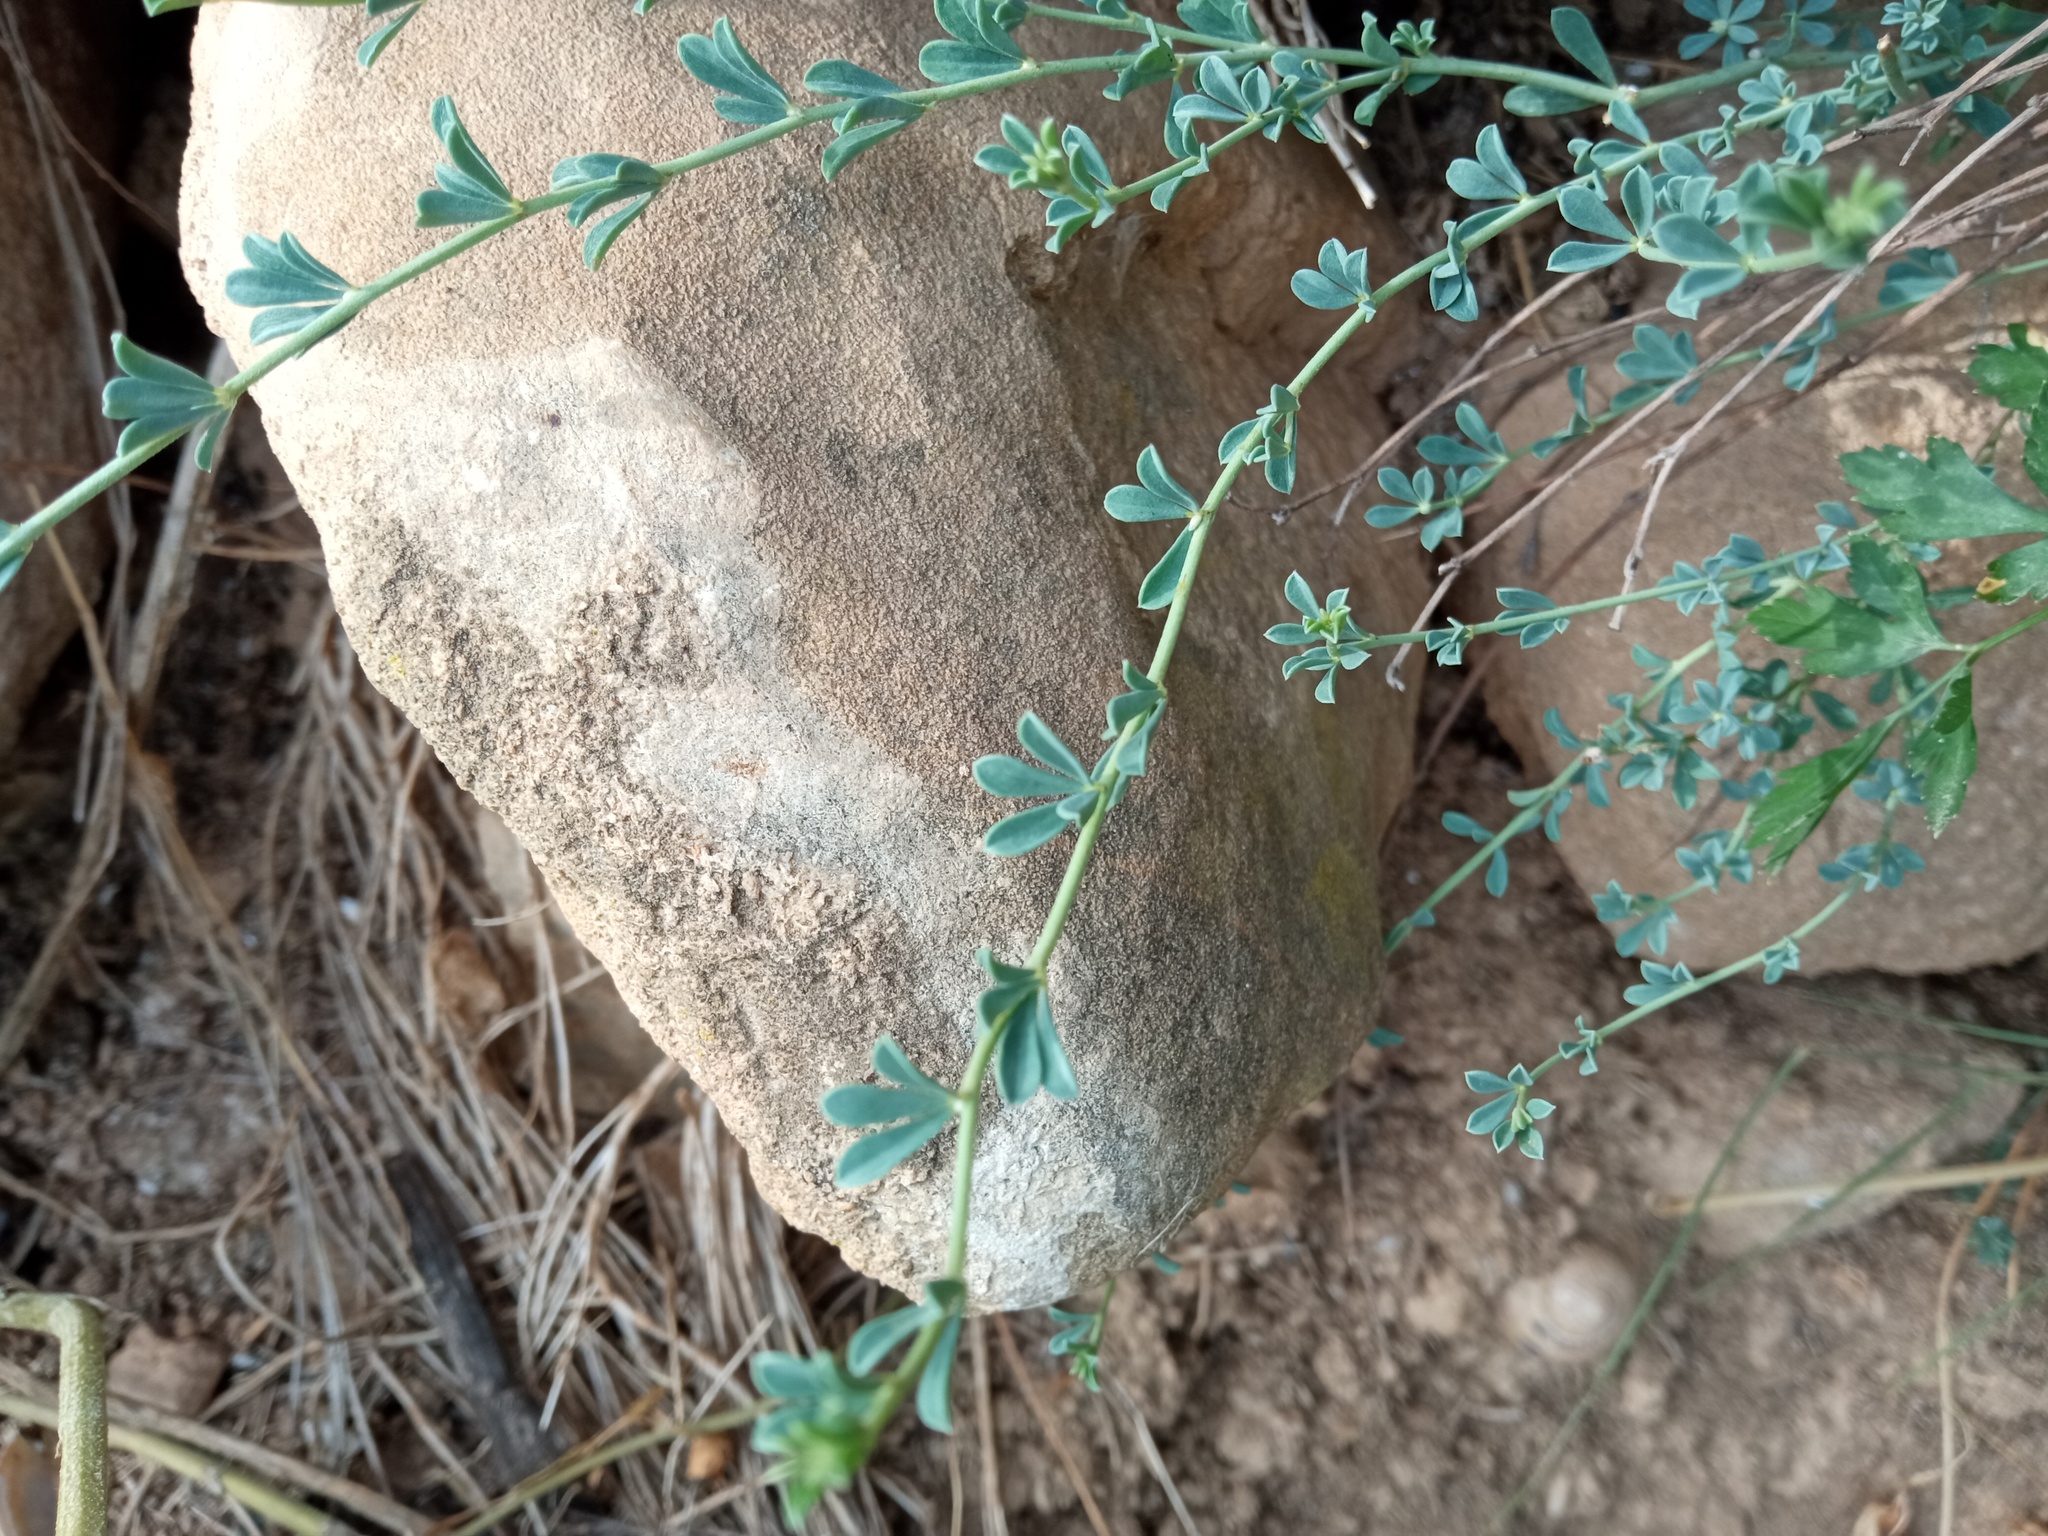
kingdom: Plantae
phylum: Tracheophyta
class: Magnoliopsida
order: Fabales
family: Fabaceae
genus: Lotus
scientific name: Lotus dorycnium
